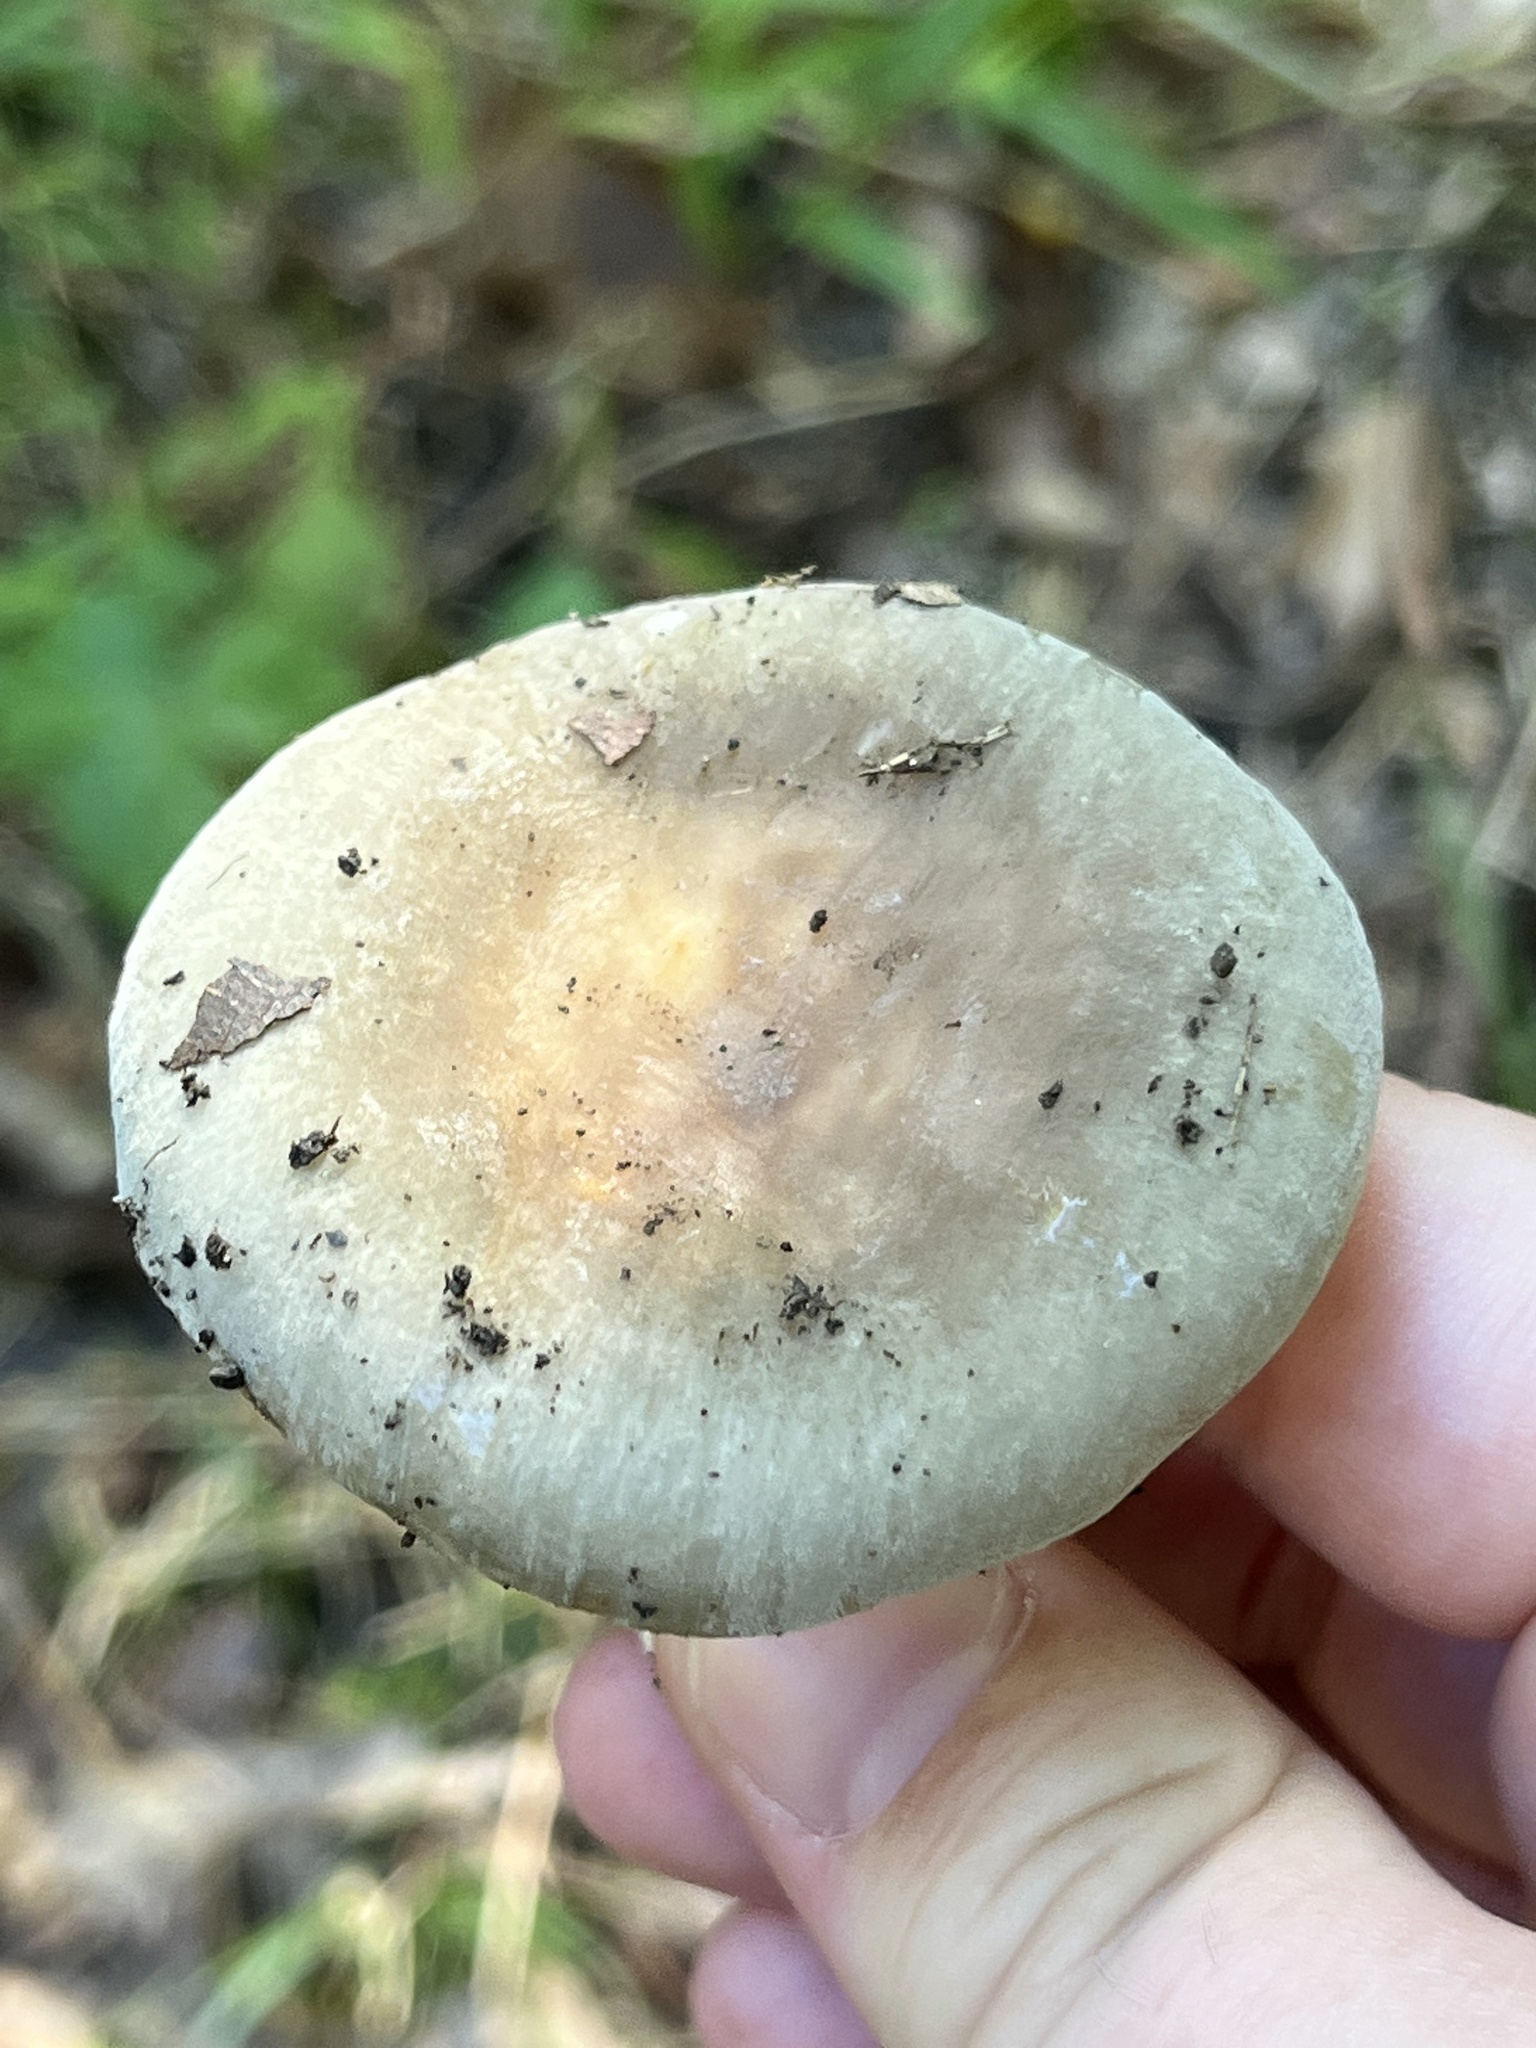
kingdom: Fungi
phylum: Basidiomycota
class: Agaricomycetes
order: Russulales
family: Russulaceae
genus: Russula
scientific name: Russula aeruginea
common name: Green brittlegill
